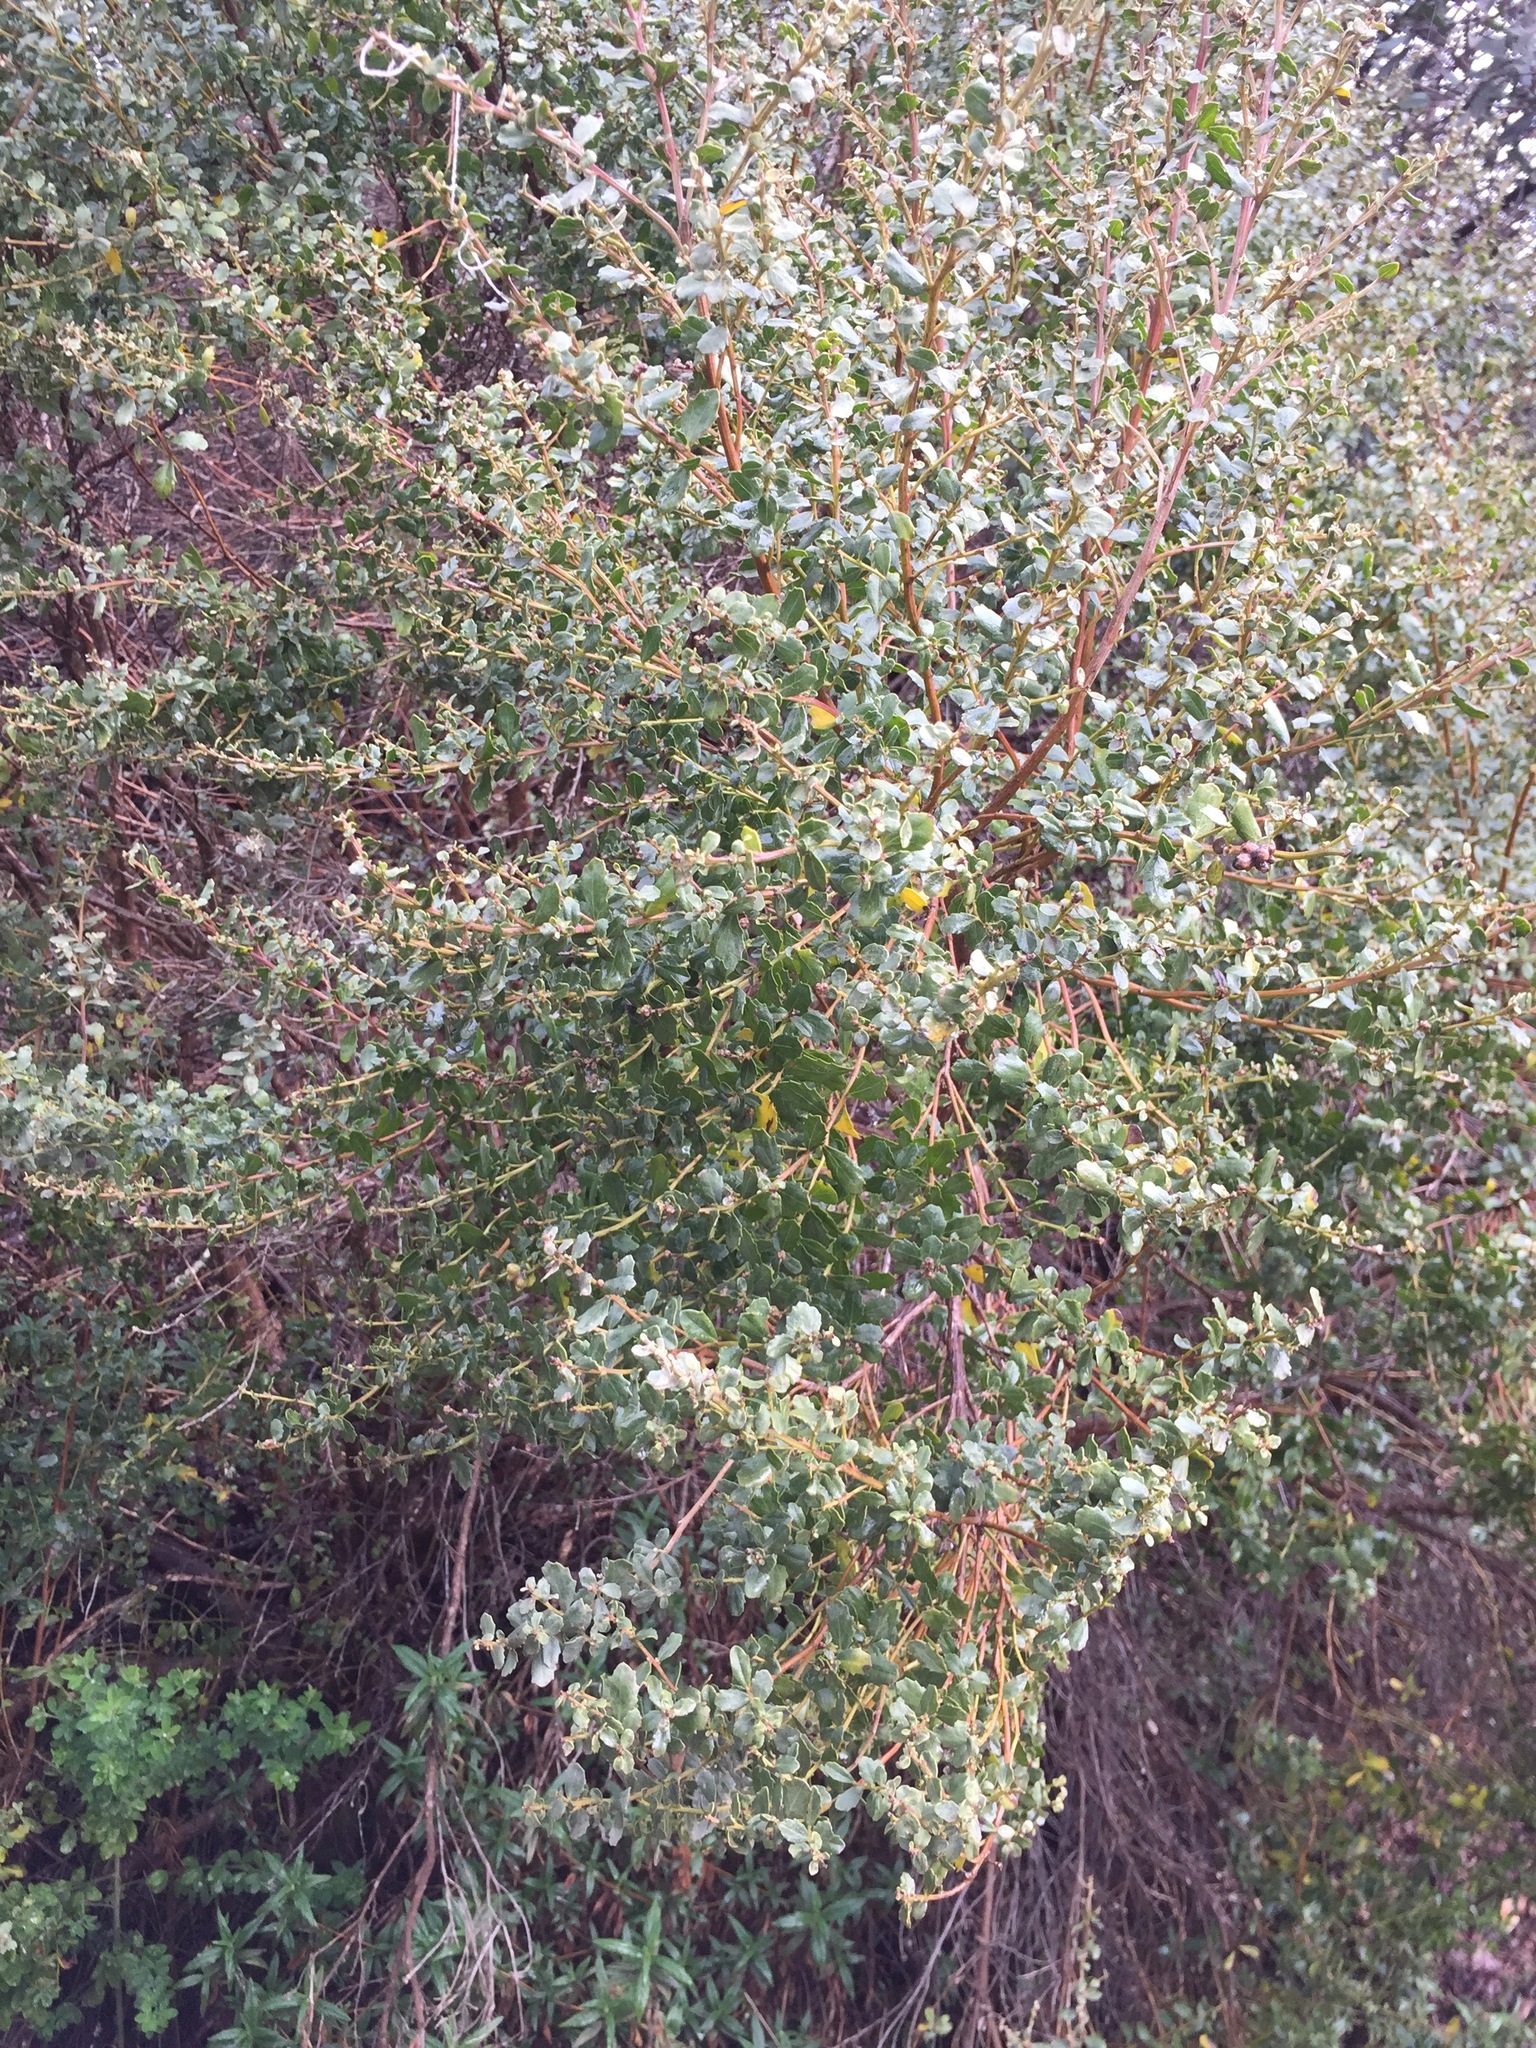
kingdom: Plantae
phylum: Tracheophyta
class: Magnoliopsida
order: Asterales
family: Asteraceae
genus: Baccharis
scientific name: Baccharis pilularis
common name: Coyotebrush
